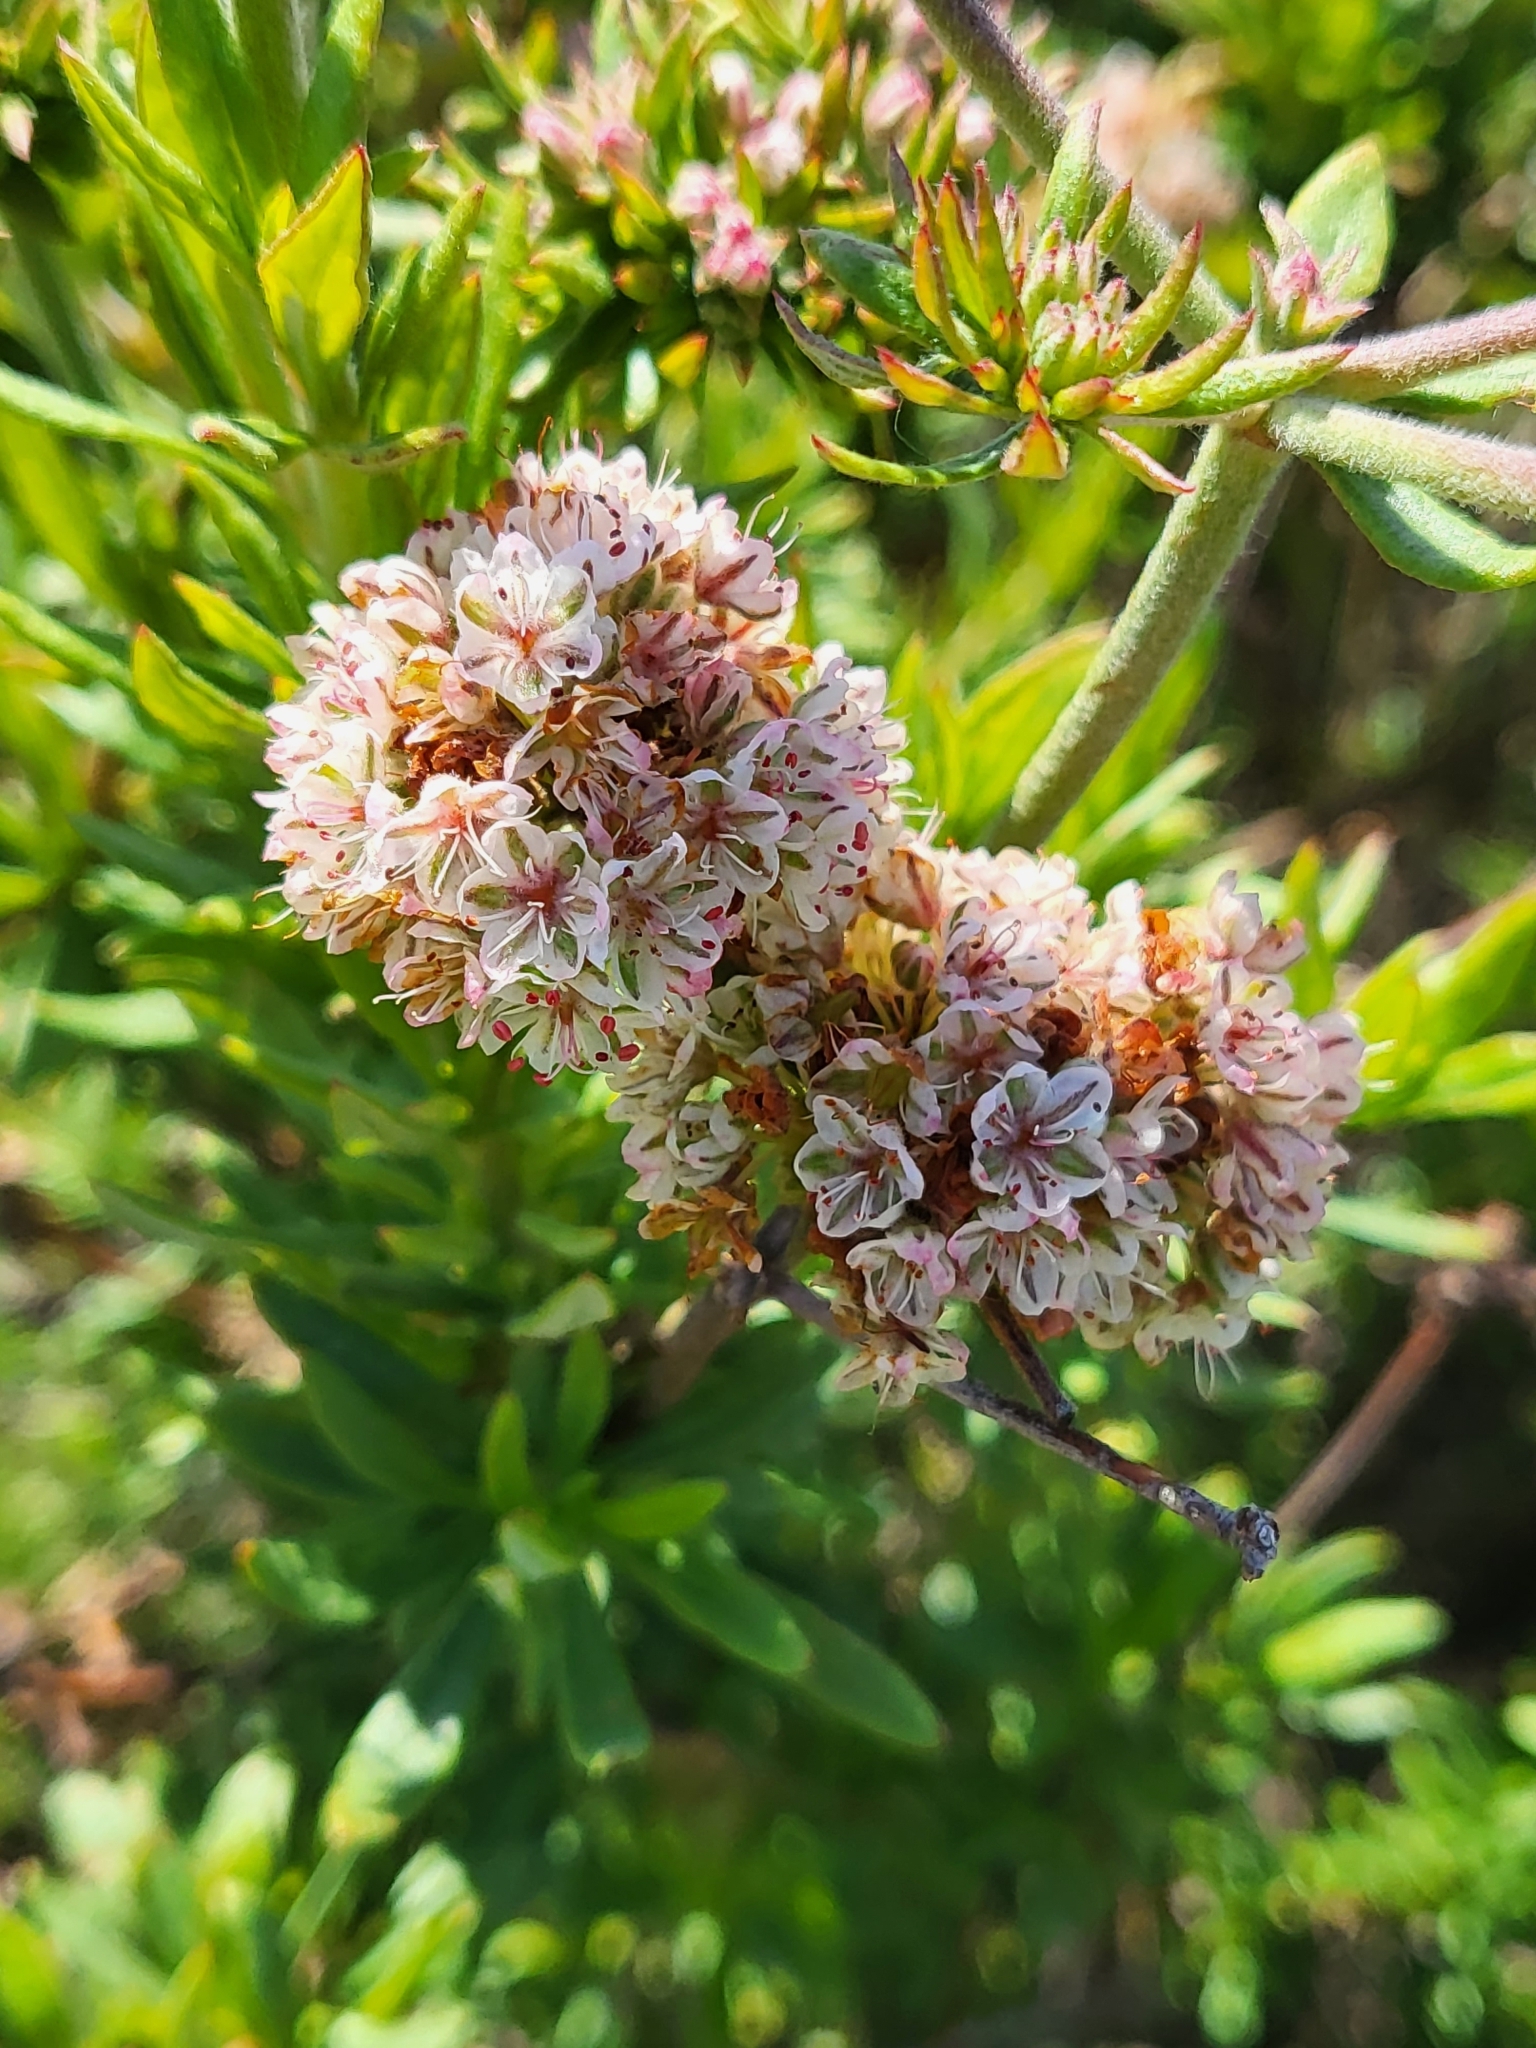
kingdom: Plantae
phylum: Tracheophyta
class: Magnoliopsida
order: Caryophyllales
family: Polygonaceae
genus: Eriogonum
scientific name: Eriogonum fasciculatum
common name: California wild buckwheat
